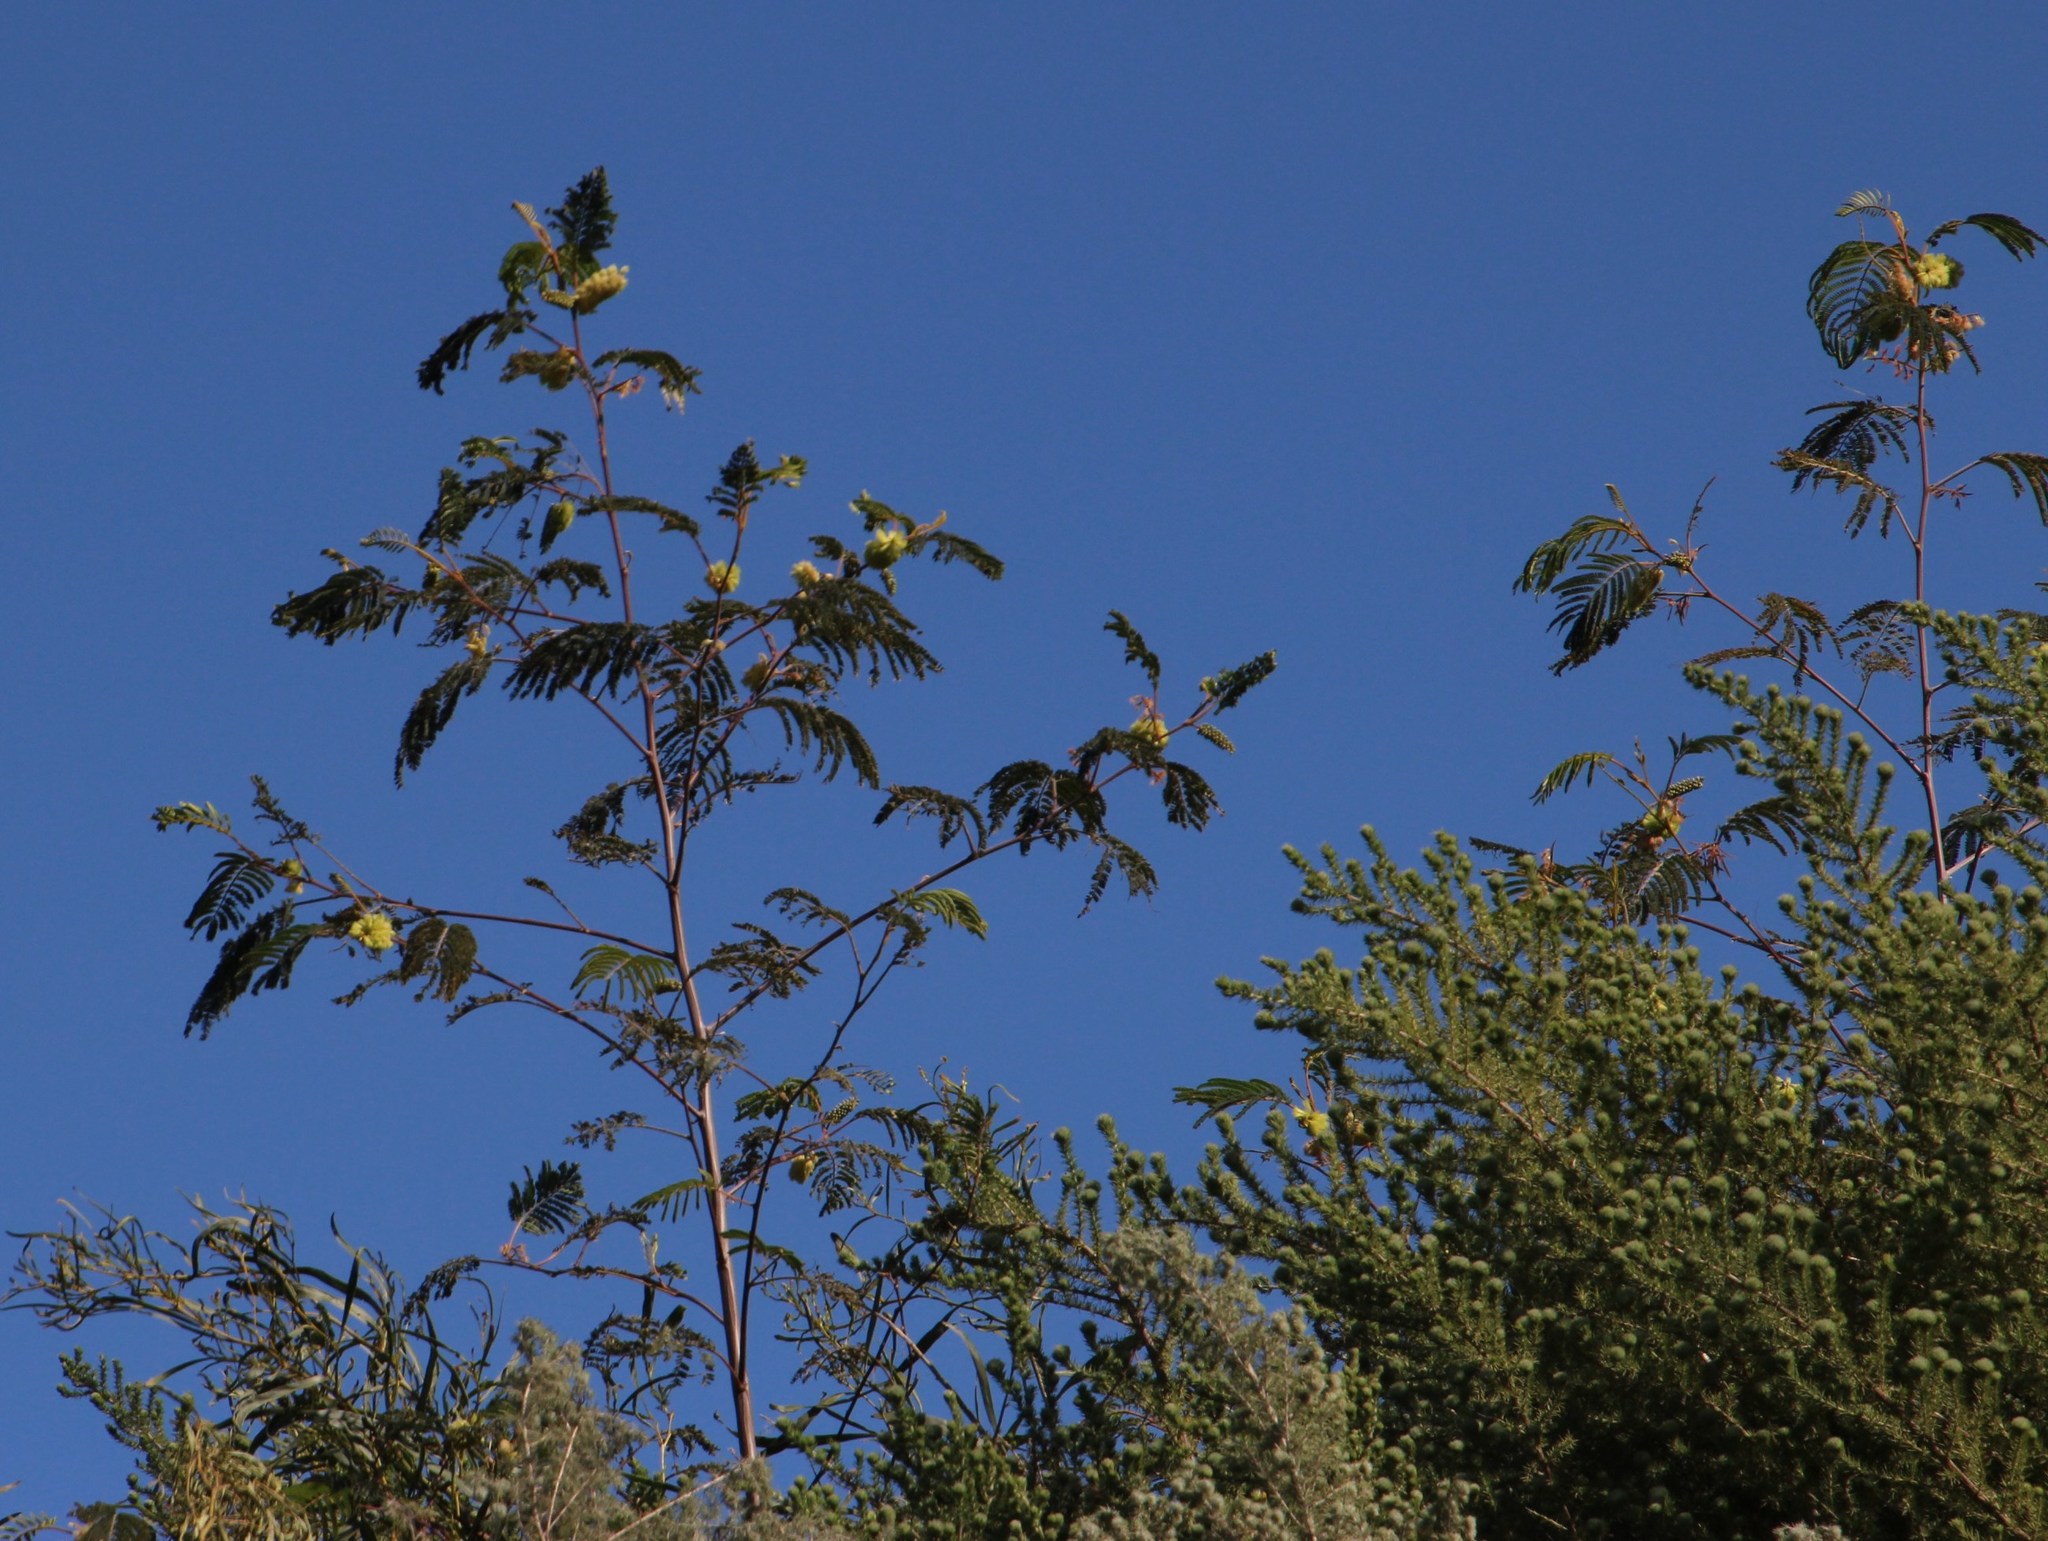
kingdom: Plantae
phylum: Tracheophyta
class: Magnoliopsida
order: Fabales
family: Fabaceae
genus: Paraserianthes
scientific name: Paraserianthes lophantha
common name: Plume albizia
